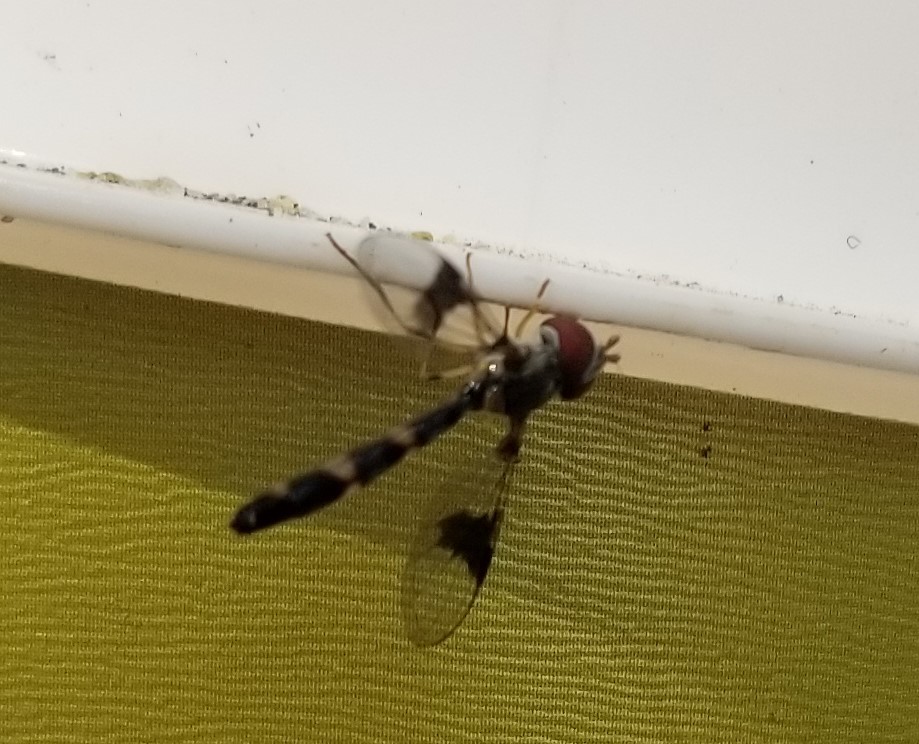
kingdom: Animalia
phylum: Arthropoda
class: Insecta
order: Diptera
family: Syrphidae
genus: Hypocritanus
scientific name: Hypocritanus fascipennis
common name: Eastern band-winged hover fly
